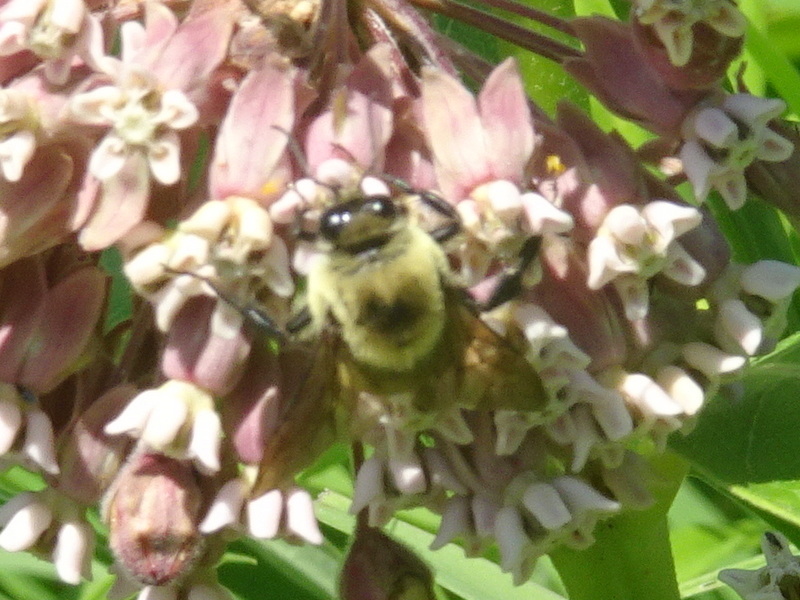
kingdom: Animalia
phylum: Arthropoda
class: Insecta
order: Hymenoptera
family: Apidae
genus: Bombus
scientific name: Bombus griseocollis
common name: Brown-belted bumble bee
